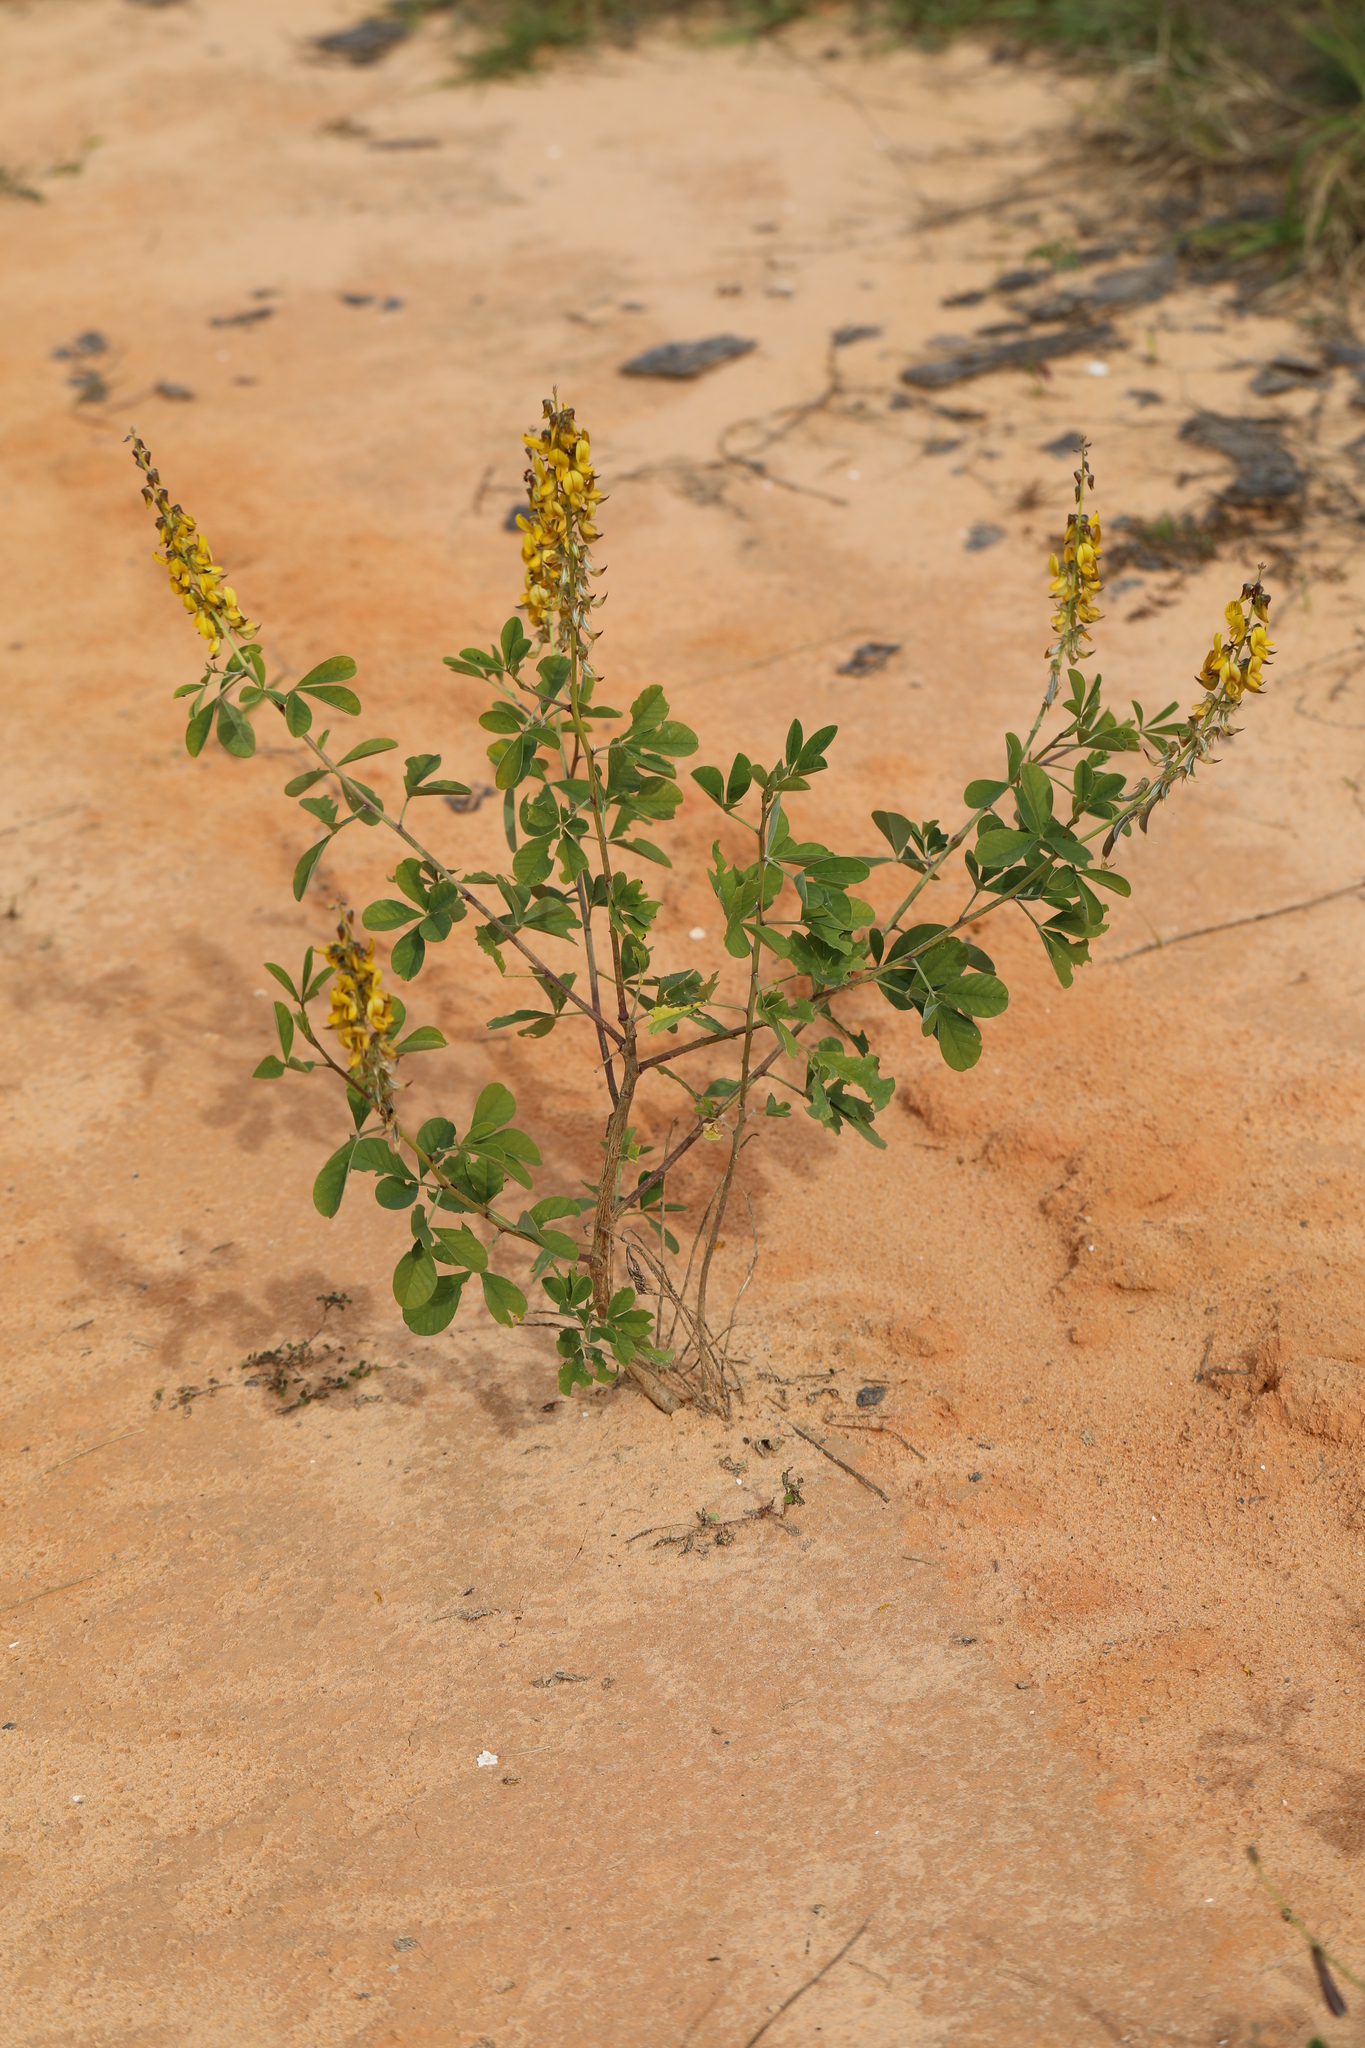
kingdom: Plantae
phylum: Tracheophyta
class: Magnoliopsida
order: Fabales
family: Fabaceae
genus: Crotalaria
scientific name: Crotalaria pallida
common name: Smooth rattlebox
